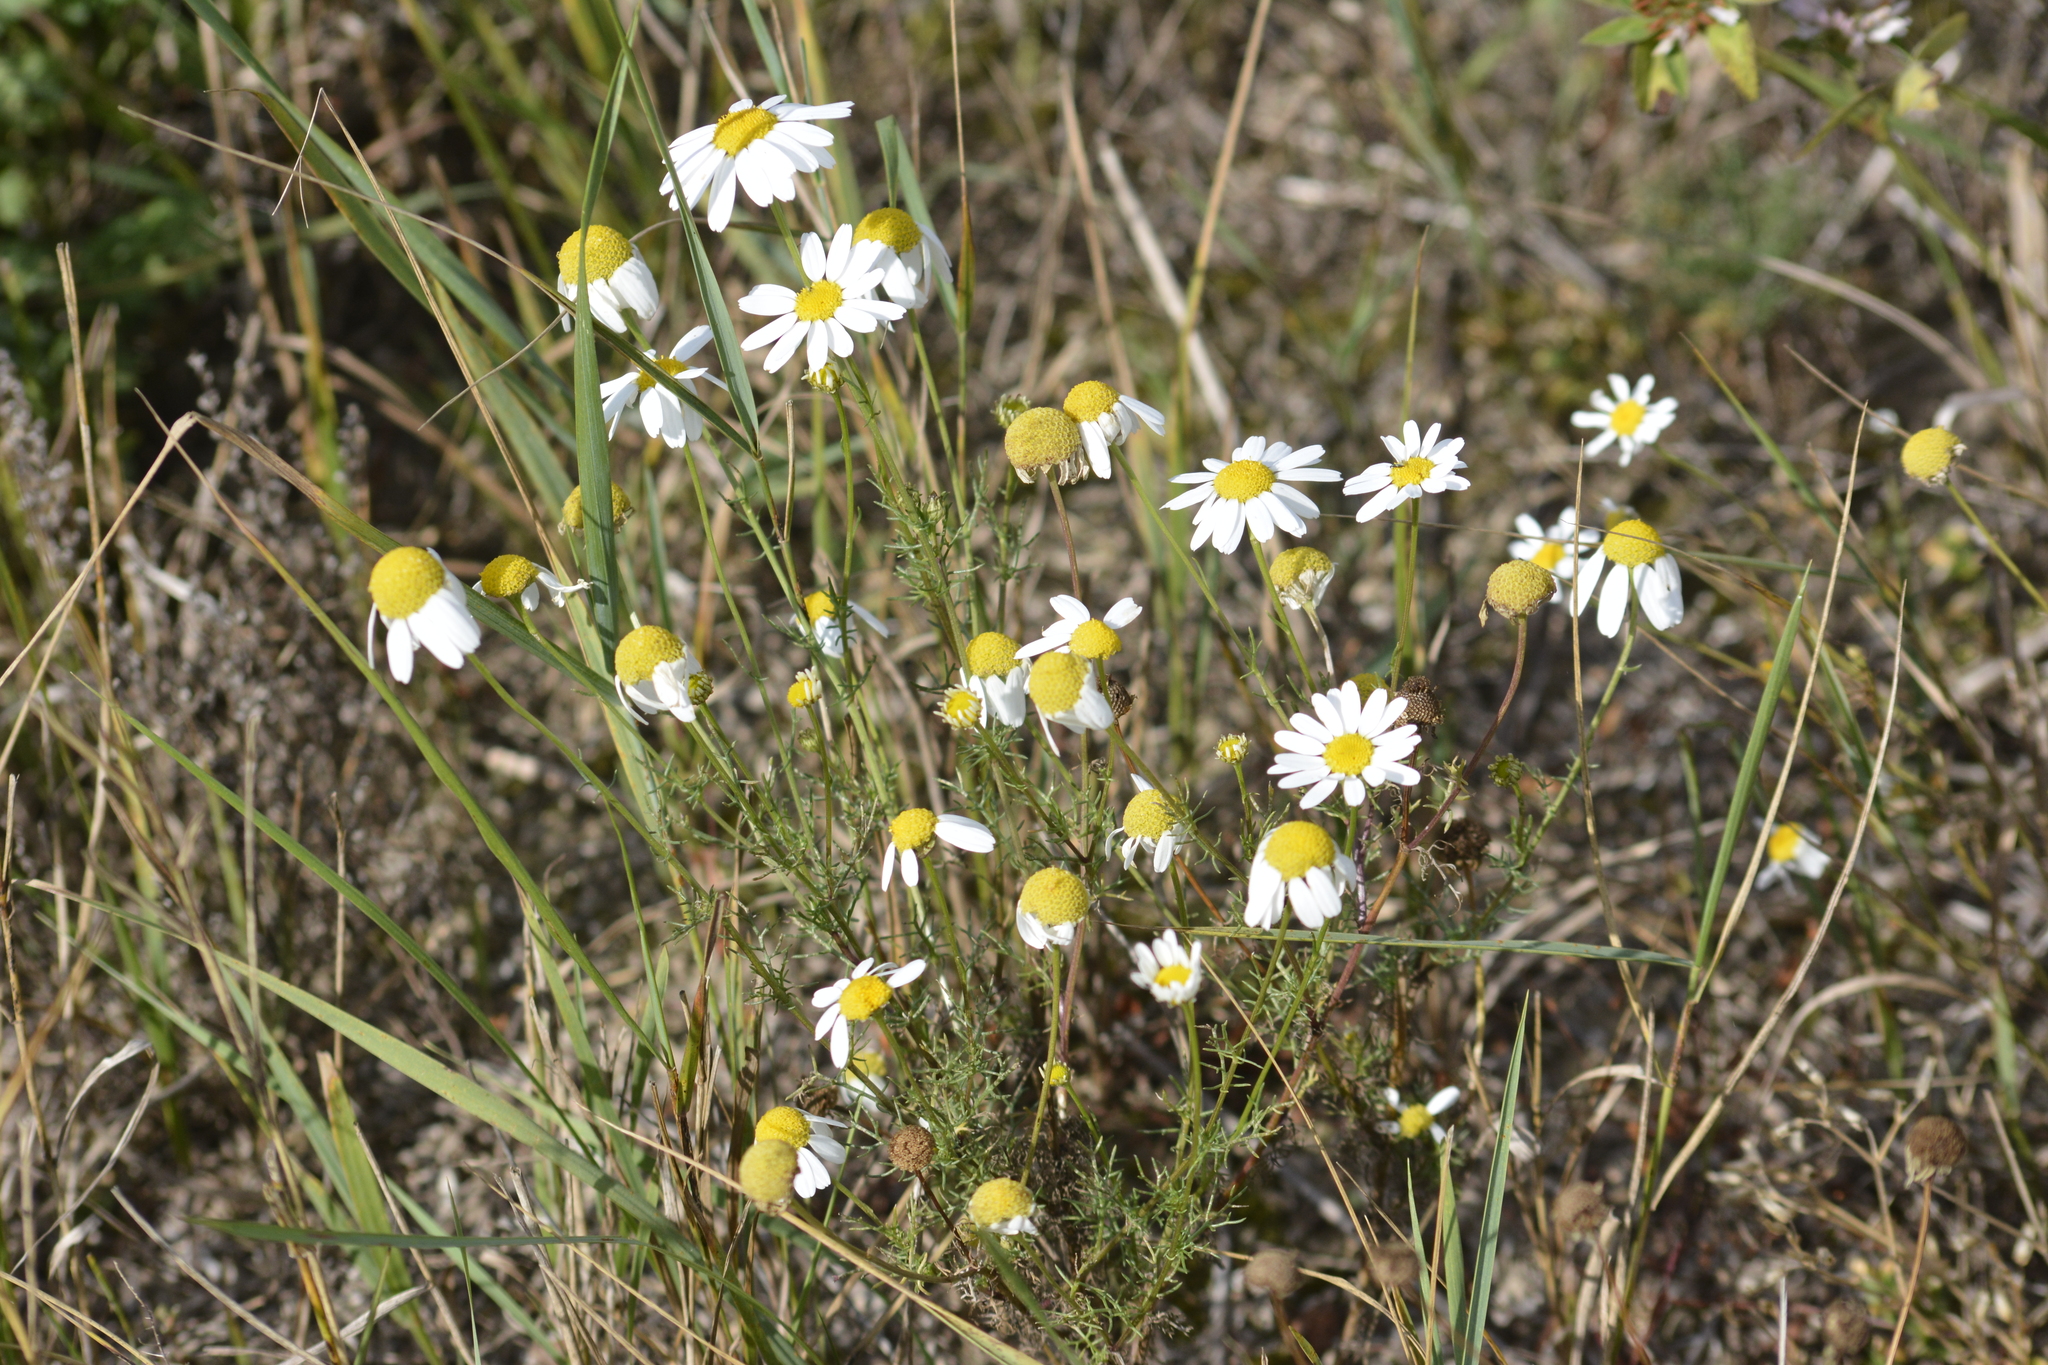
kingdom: Plantae
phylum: Tracheophyta
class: Magnoliopsida
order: Asterales
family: Asteraceae
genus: Tripleurospermum
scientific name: Tripleurospermum inodorum
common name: Scentless mayweed
